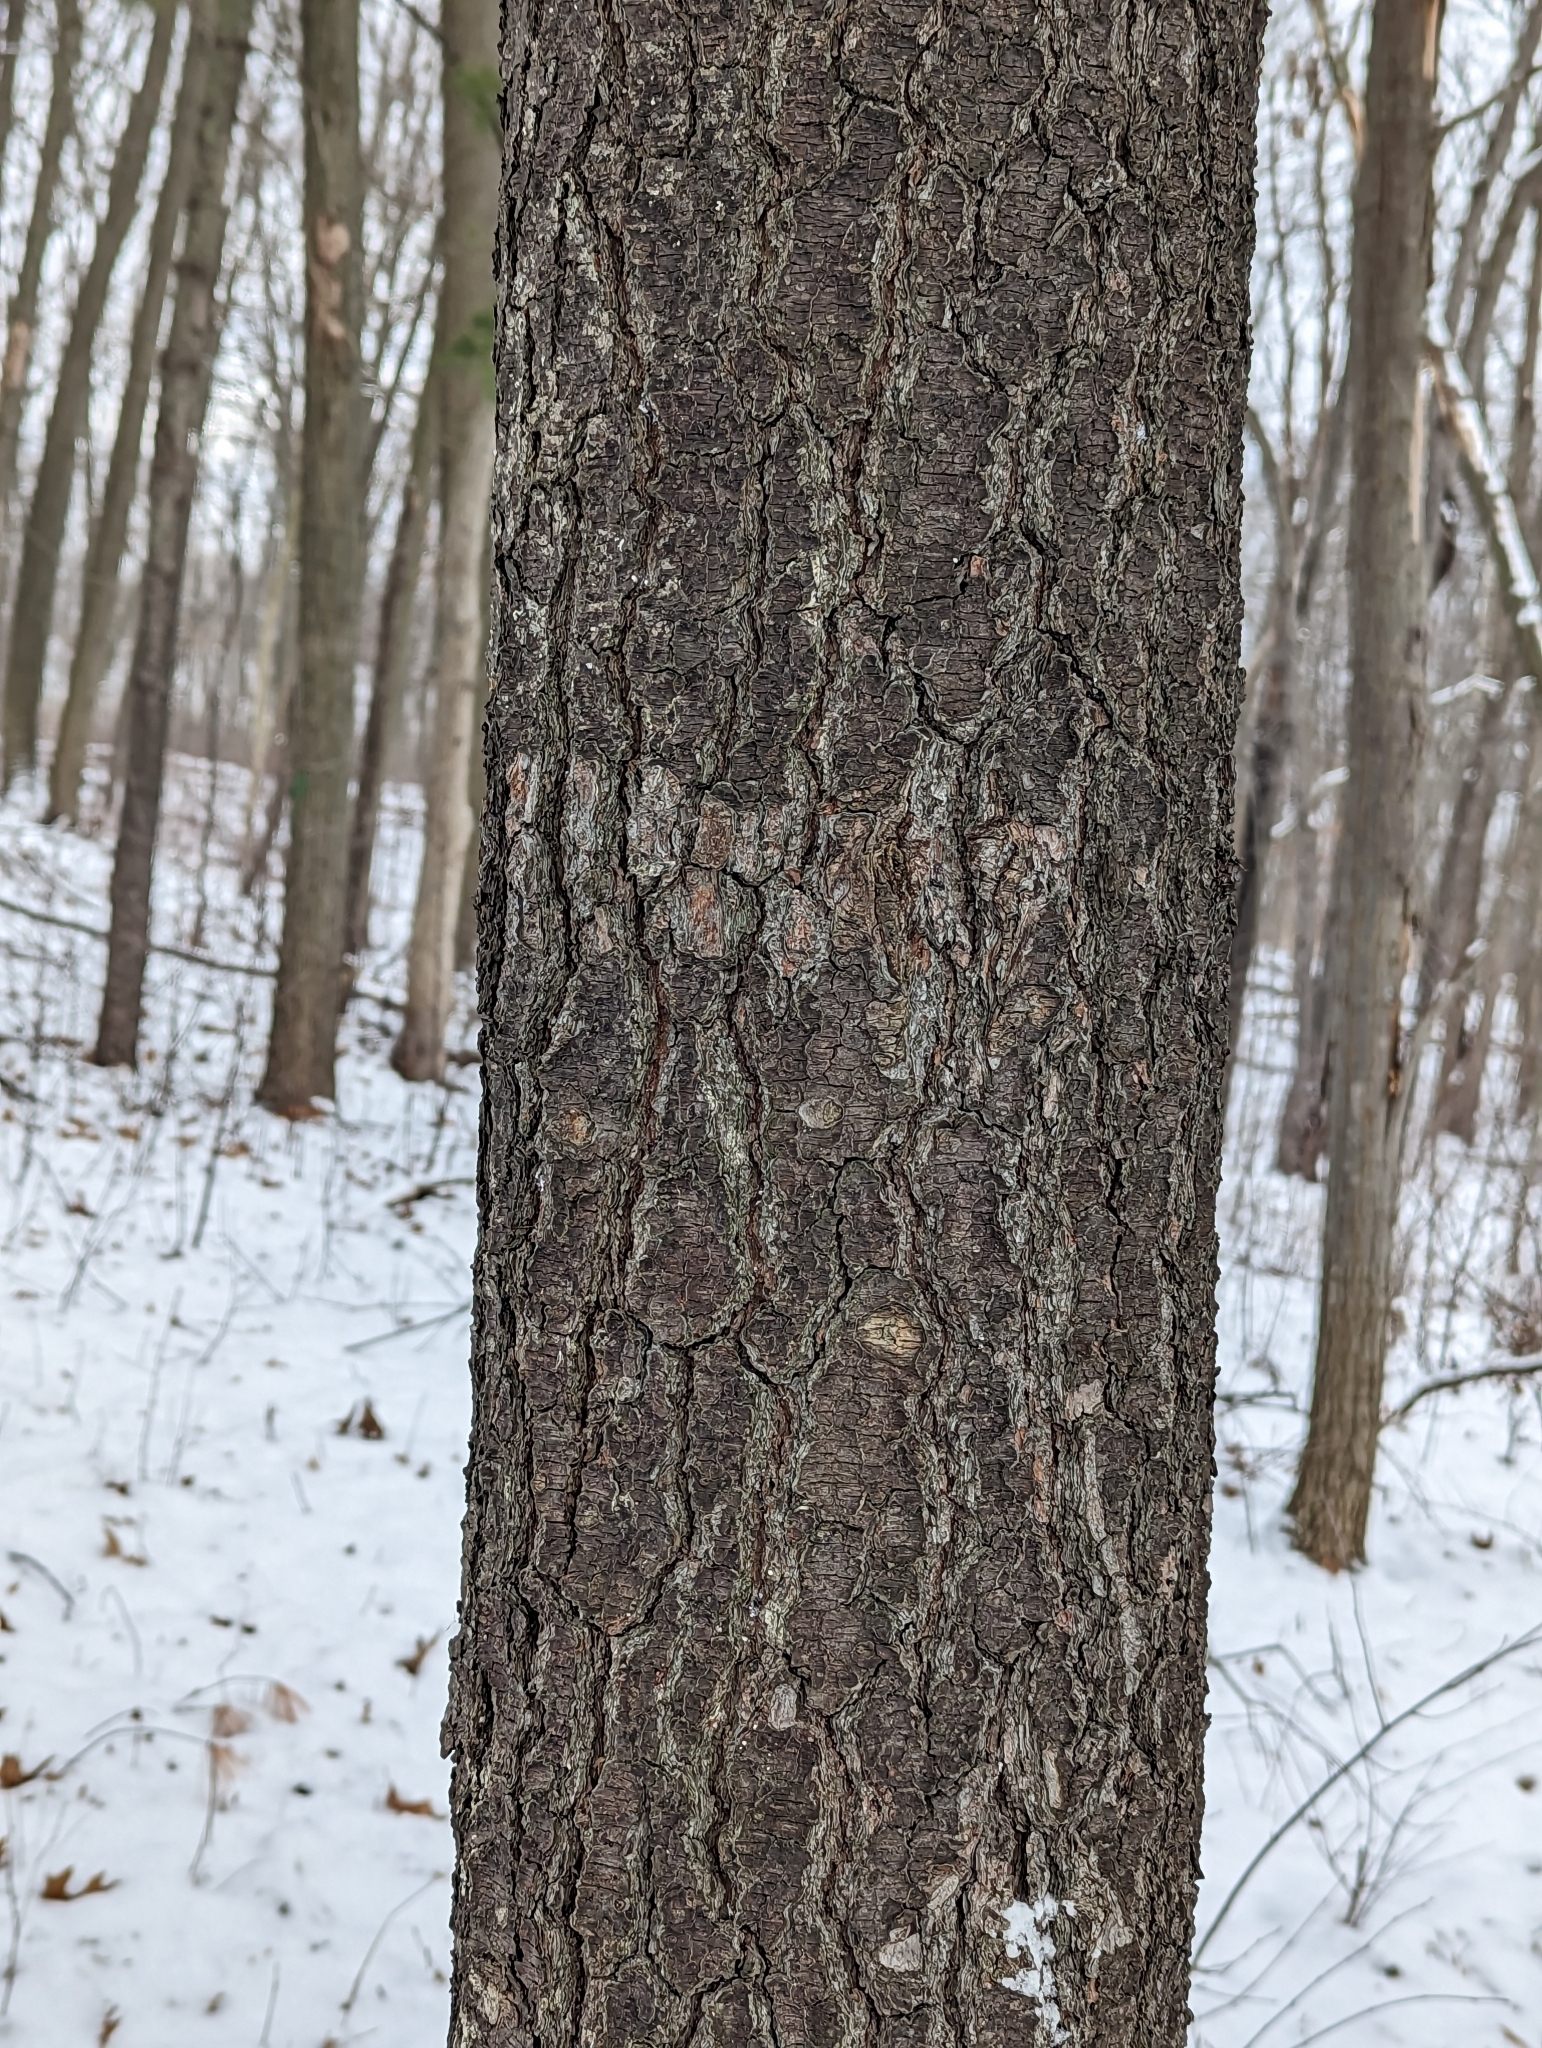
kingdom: Plantae
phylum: Tracheophyta
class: Pinopsida
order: Pinales
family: Pinaceae
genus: Pinus
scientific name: Pinus strobus
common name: Weymouth pine
